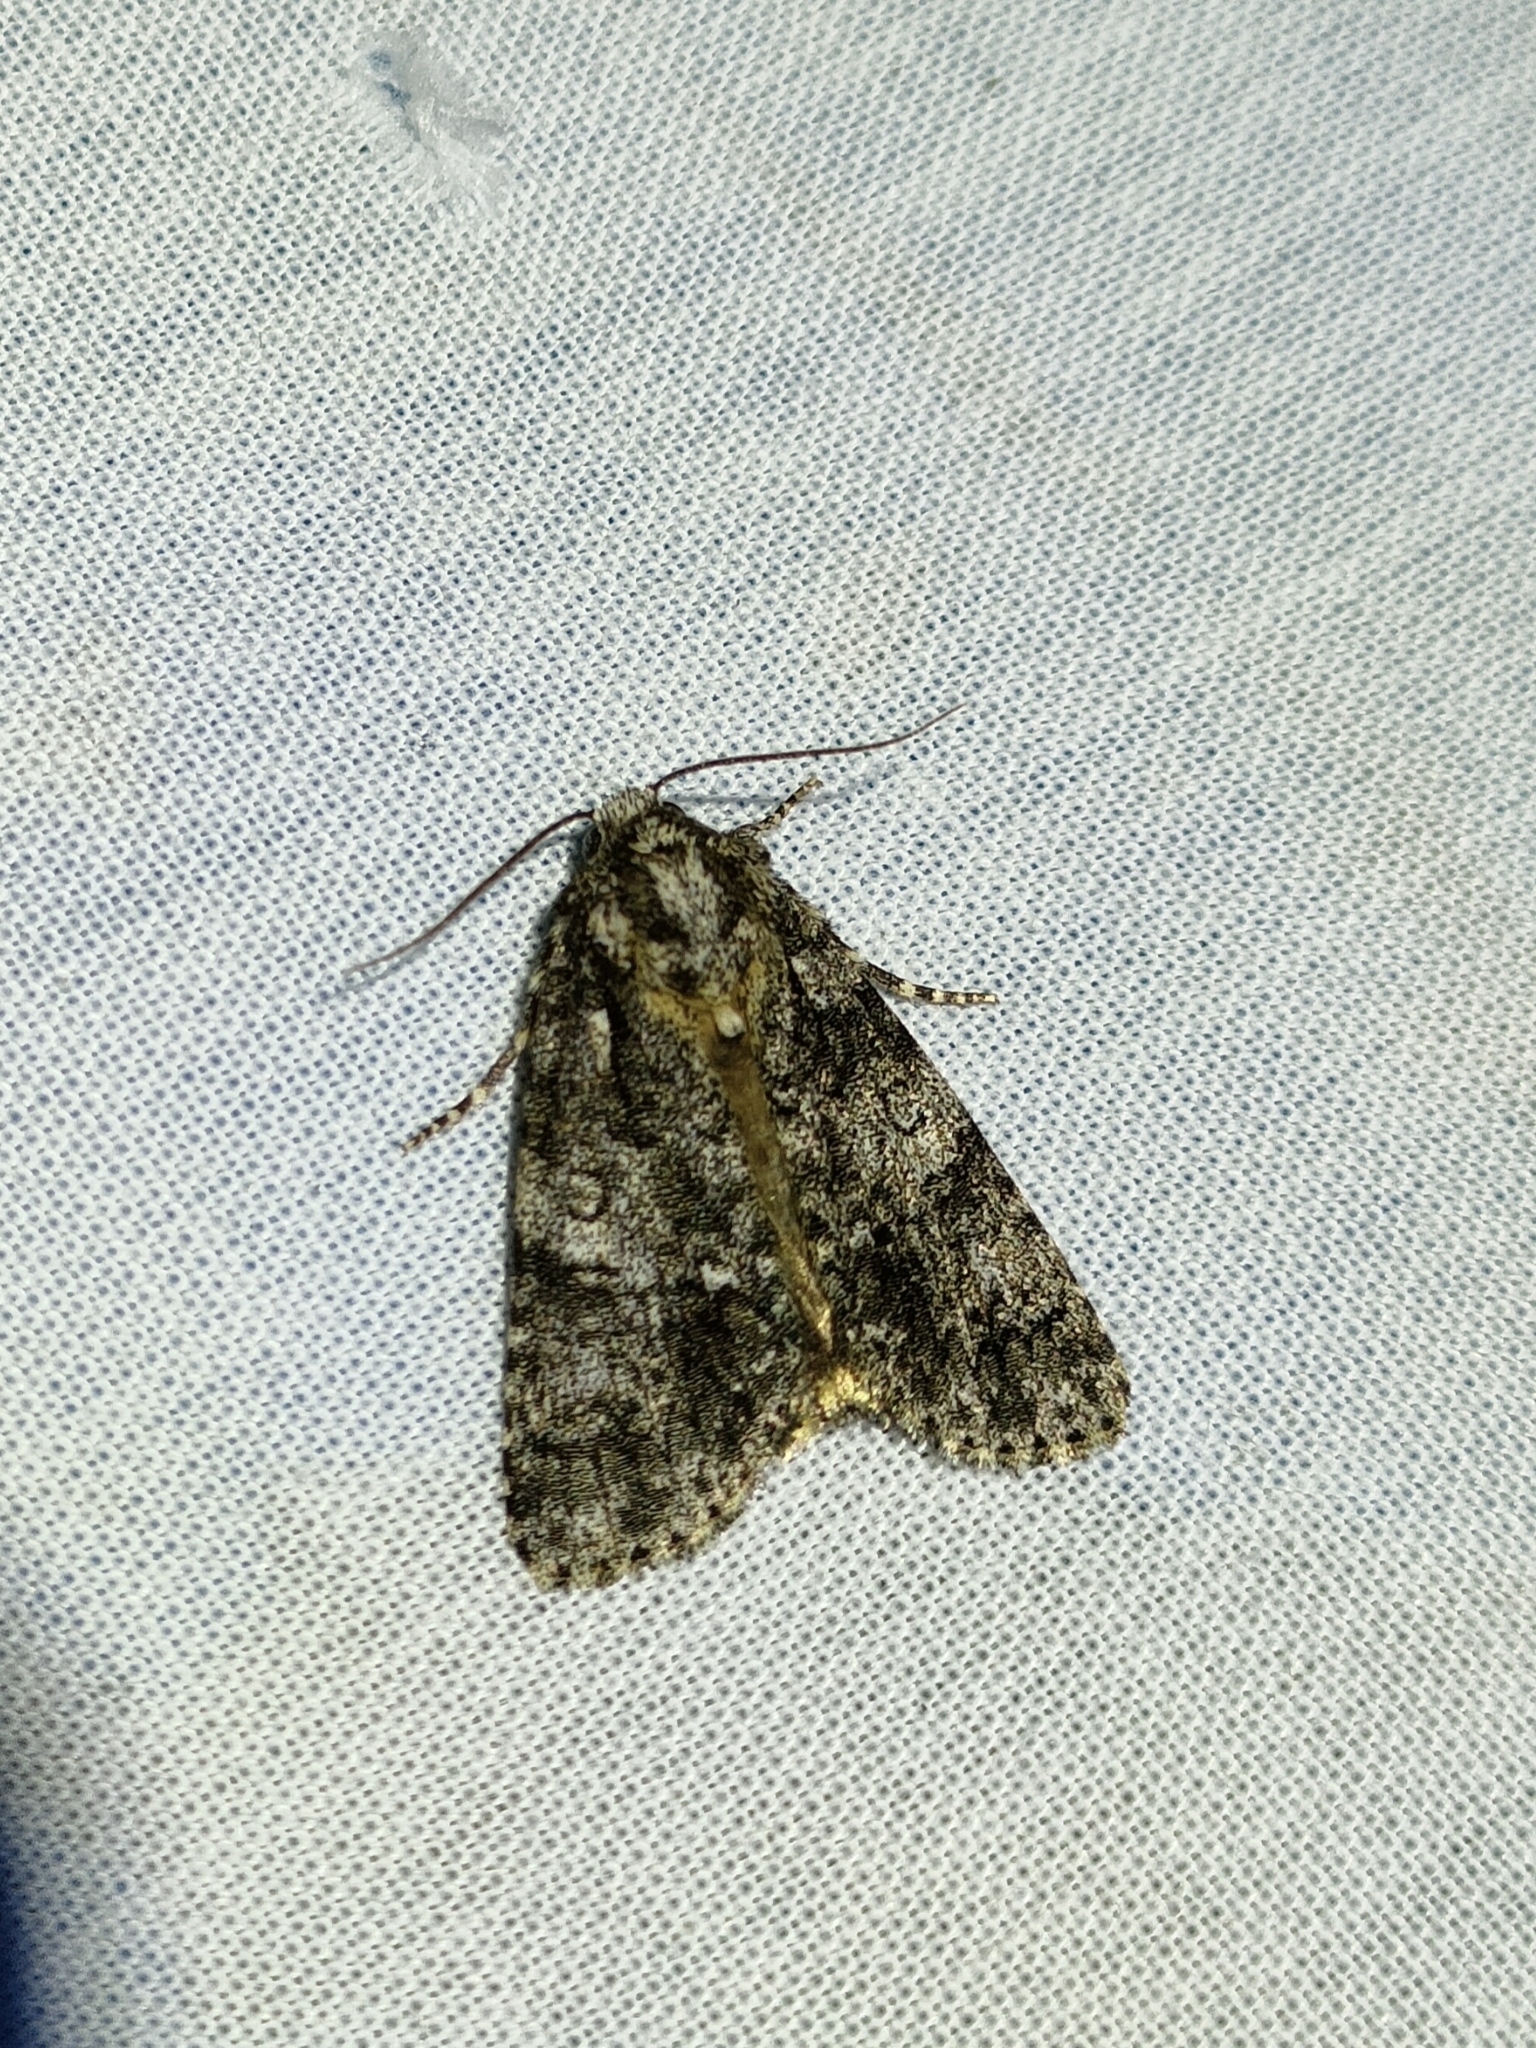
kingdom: Animalia
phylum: Arthropoda
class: Insecta
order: Lepidoptera
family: Noctuidae
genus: Acronicta
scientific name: Acronicta rumicis
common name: Knot grass
